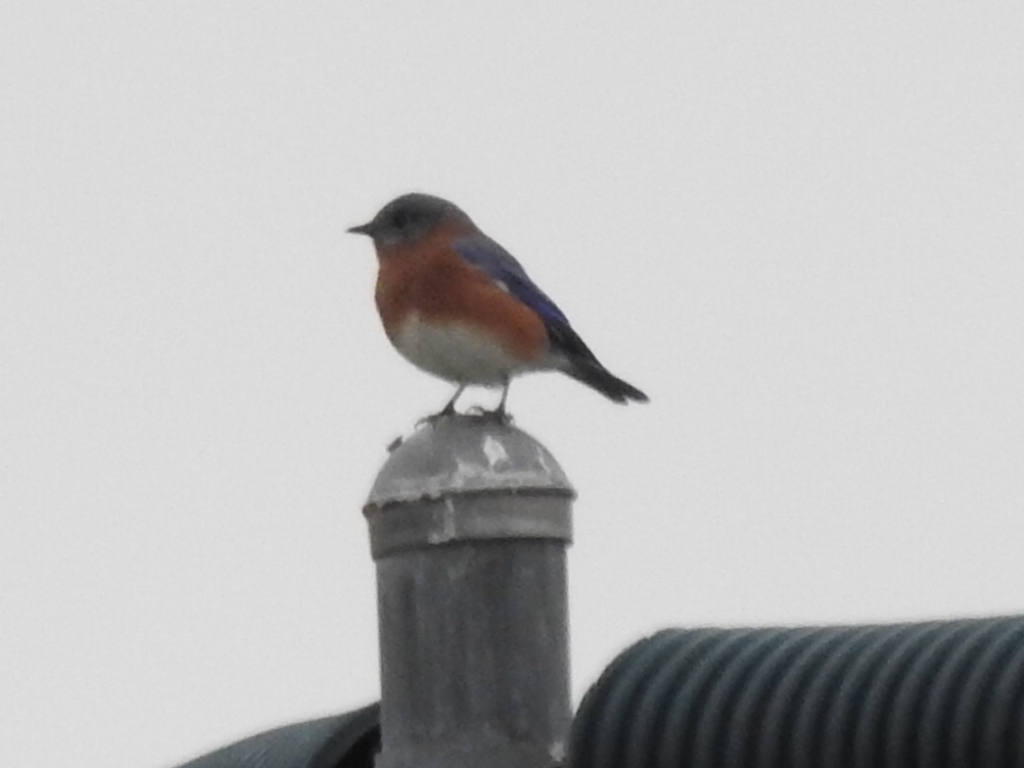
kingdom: Animalia
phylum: Chordata
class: Aves
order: Passeriformes
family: Turdidae
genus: Sialia
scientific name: Sialia sialis
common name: Eastern bluebird
